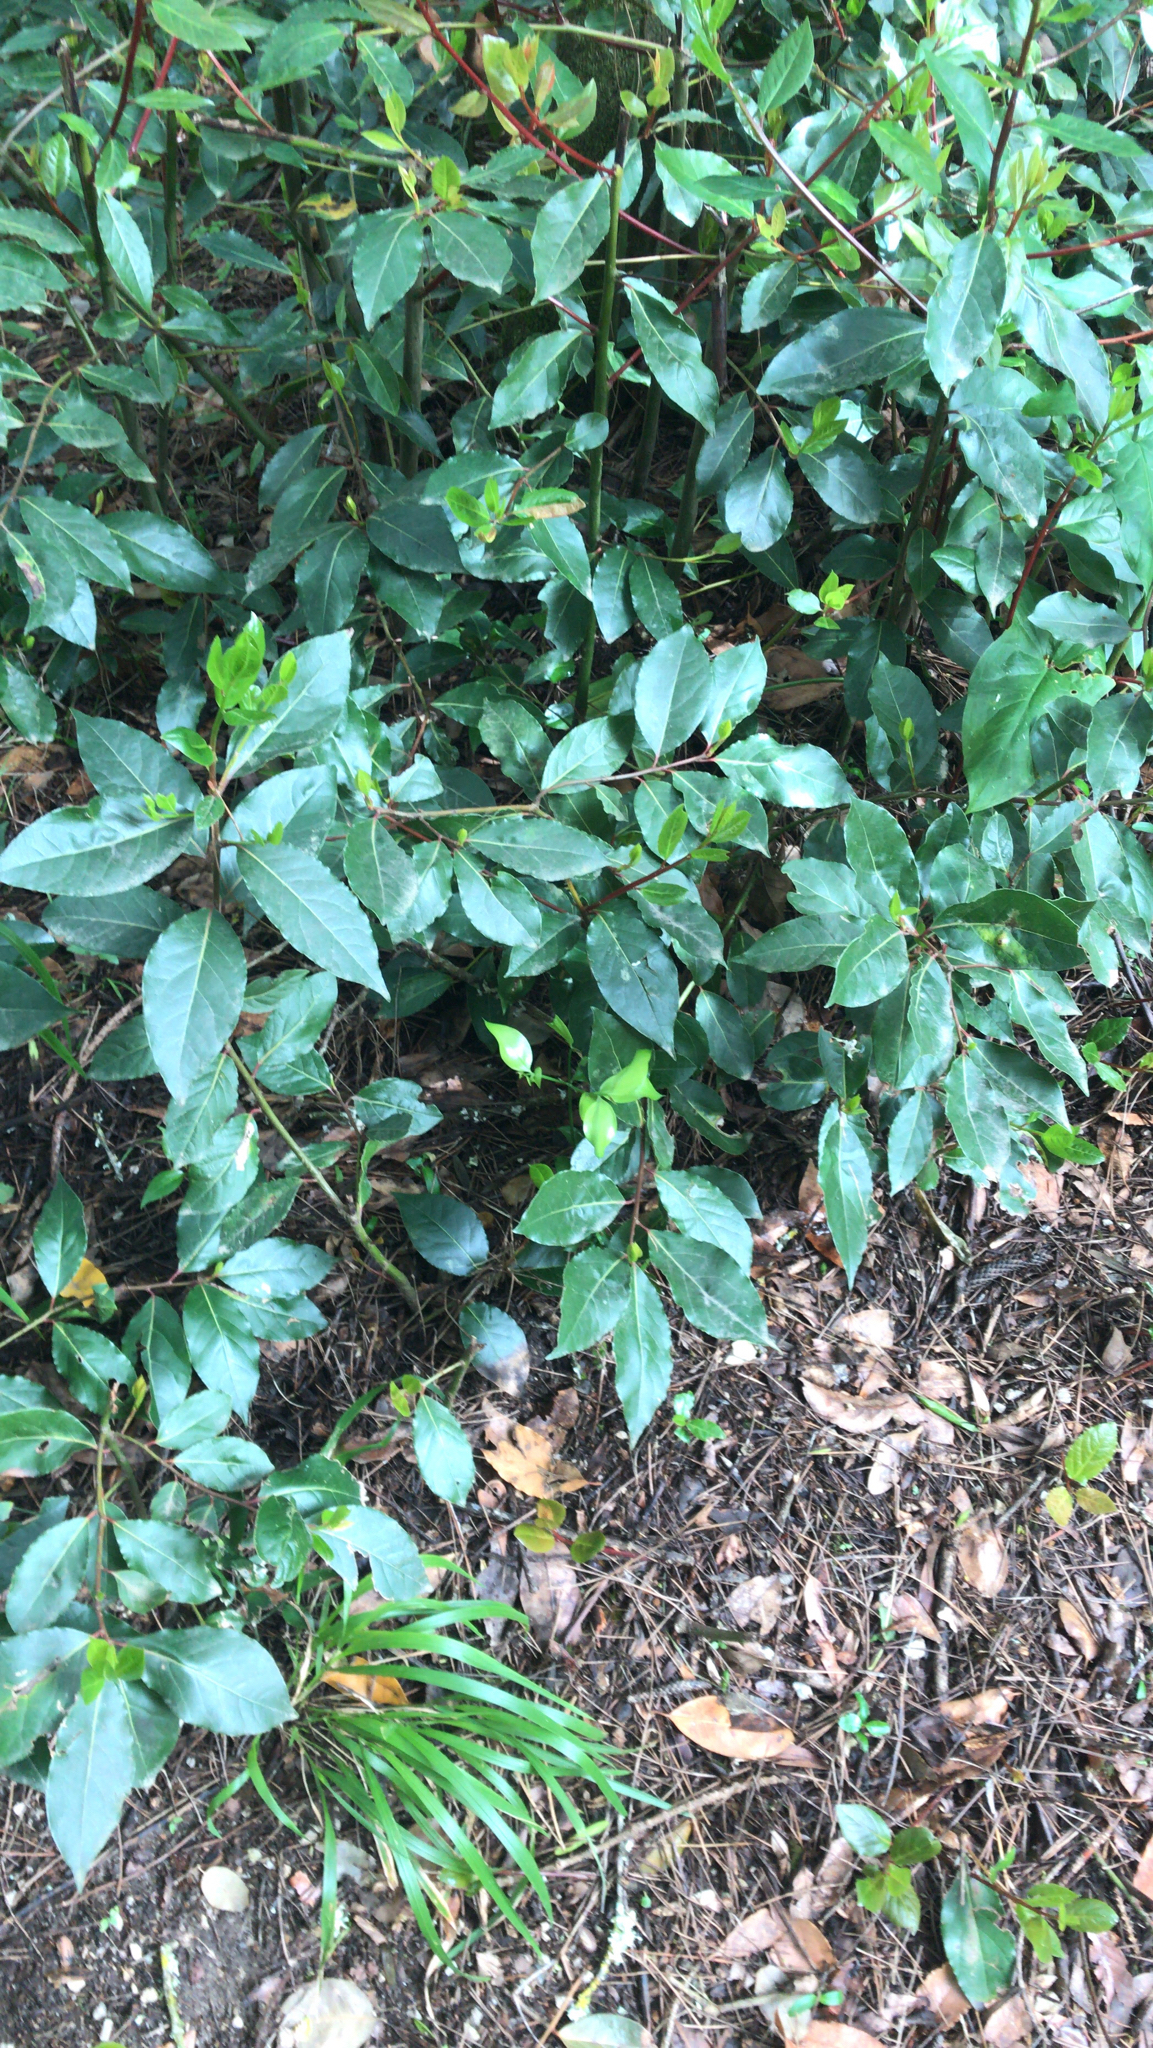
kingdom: Plantae
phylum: Tracheophyta
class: Magnoliopsida
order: Laurales
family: Lauraceae
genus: Laurus
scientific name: Laurus nobilis
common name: Bay
